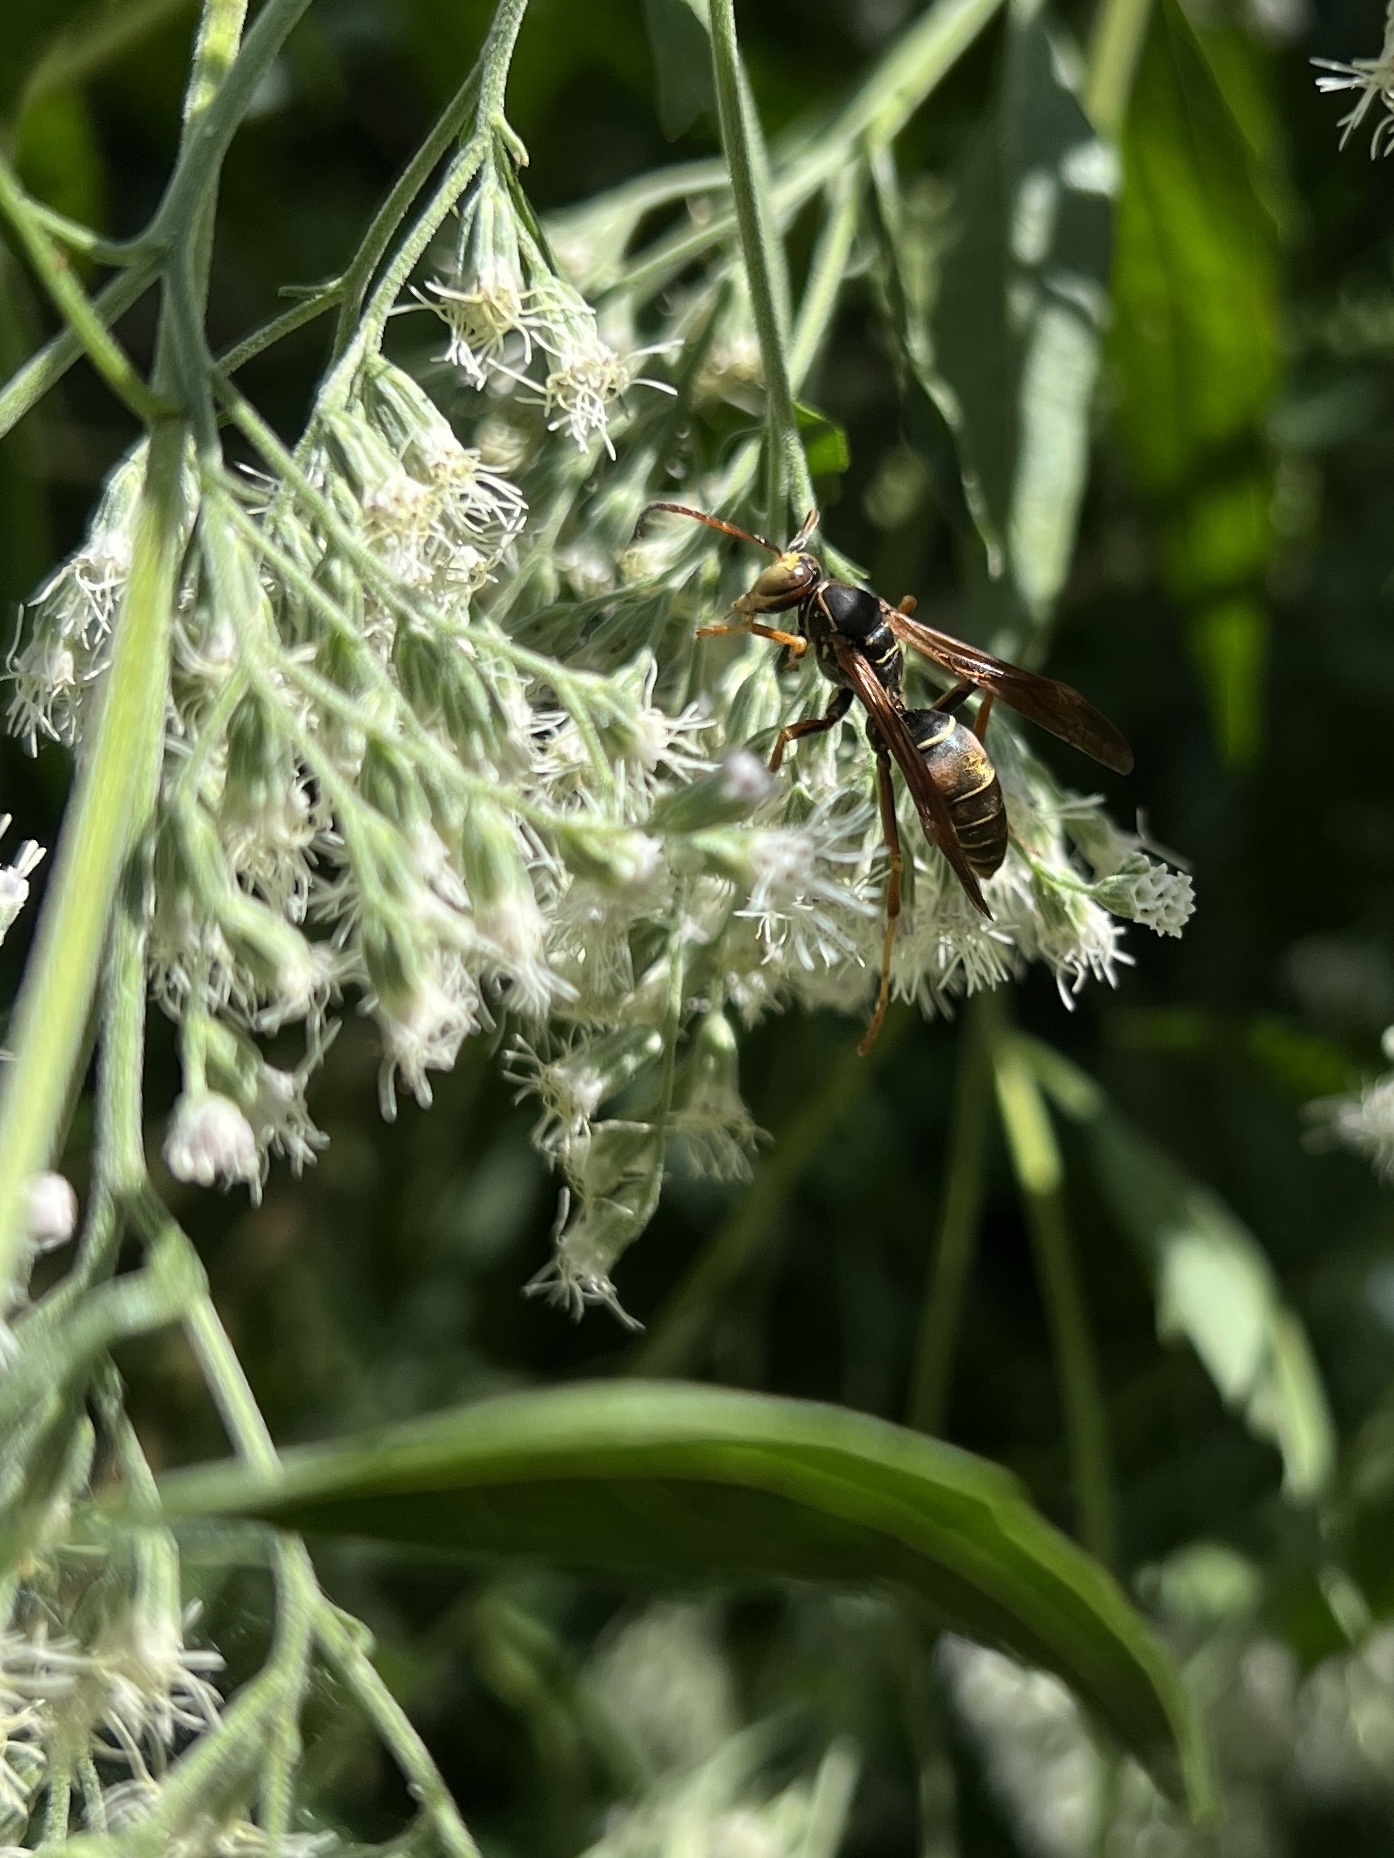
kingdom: Animalia
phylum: Arthropoda
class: Insecta
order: Hymenoptera
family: Eumenidae
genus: Polistes
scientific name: Polistes fuscatus
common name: Dark paper wasp
